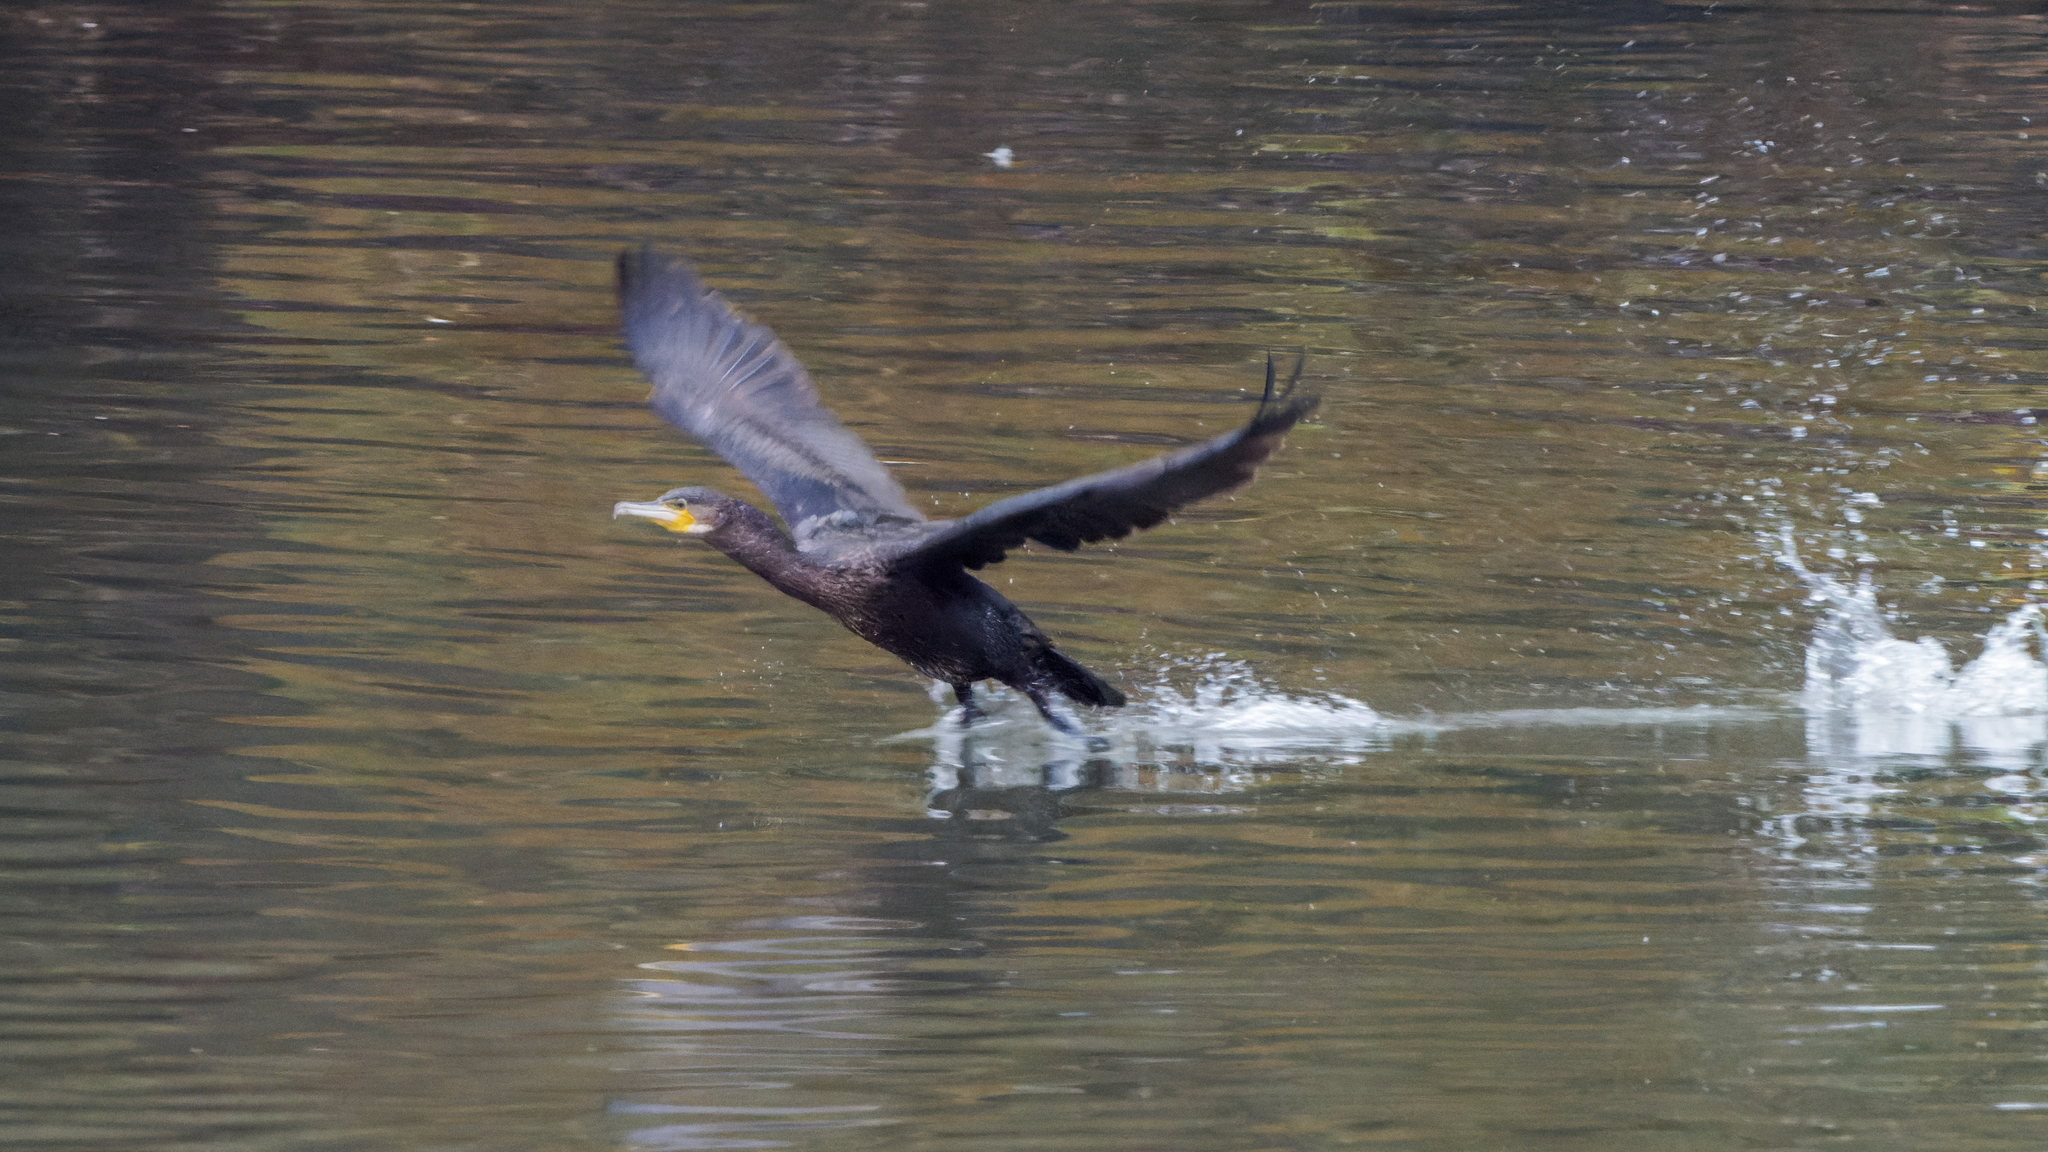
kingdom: Animalia
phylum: Chordata
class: Aves
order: Suliformes
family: Phalacrocoracidae
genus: Phalacrocorax
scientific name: Phalacrocorax carbo
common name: Great cormorant
